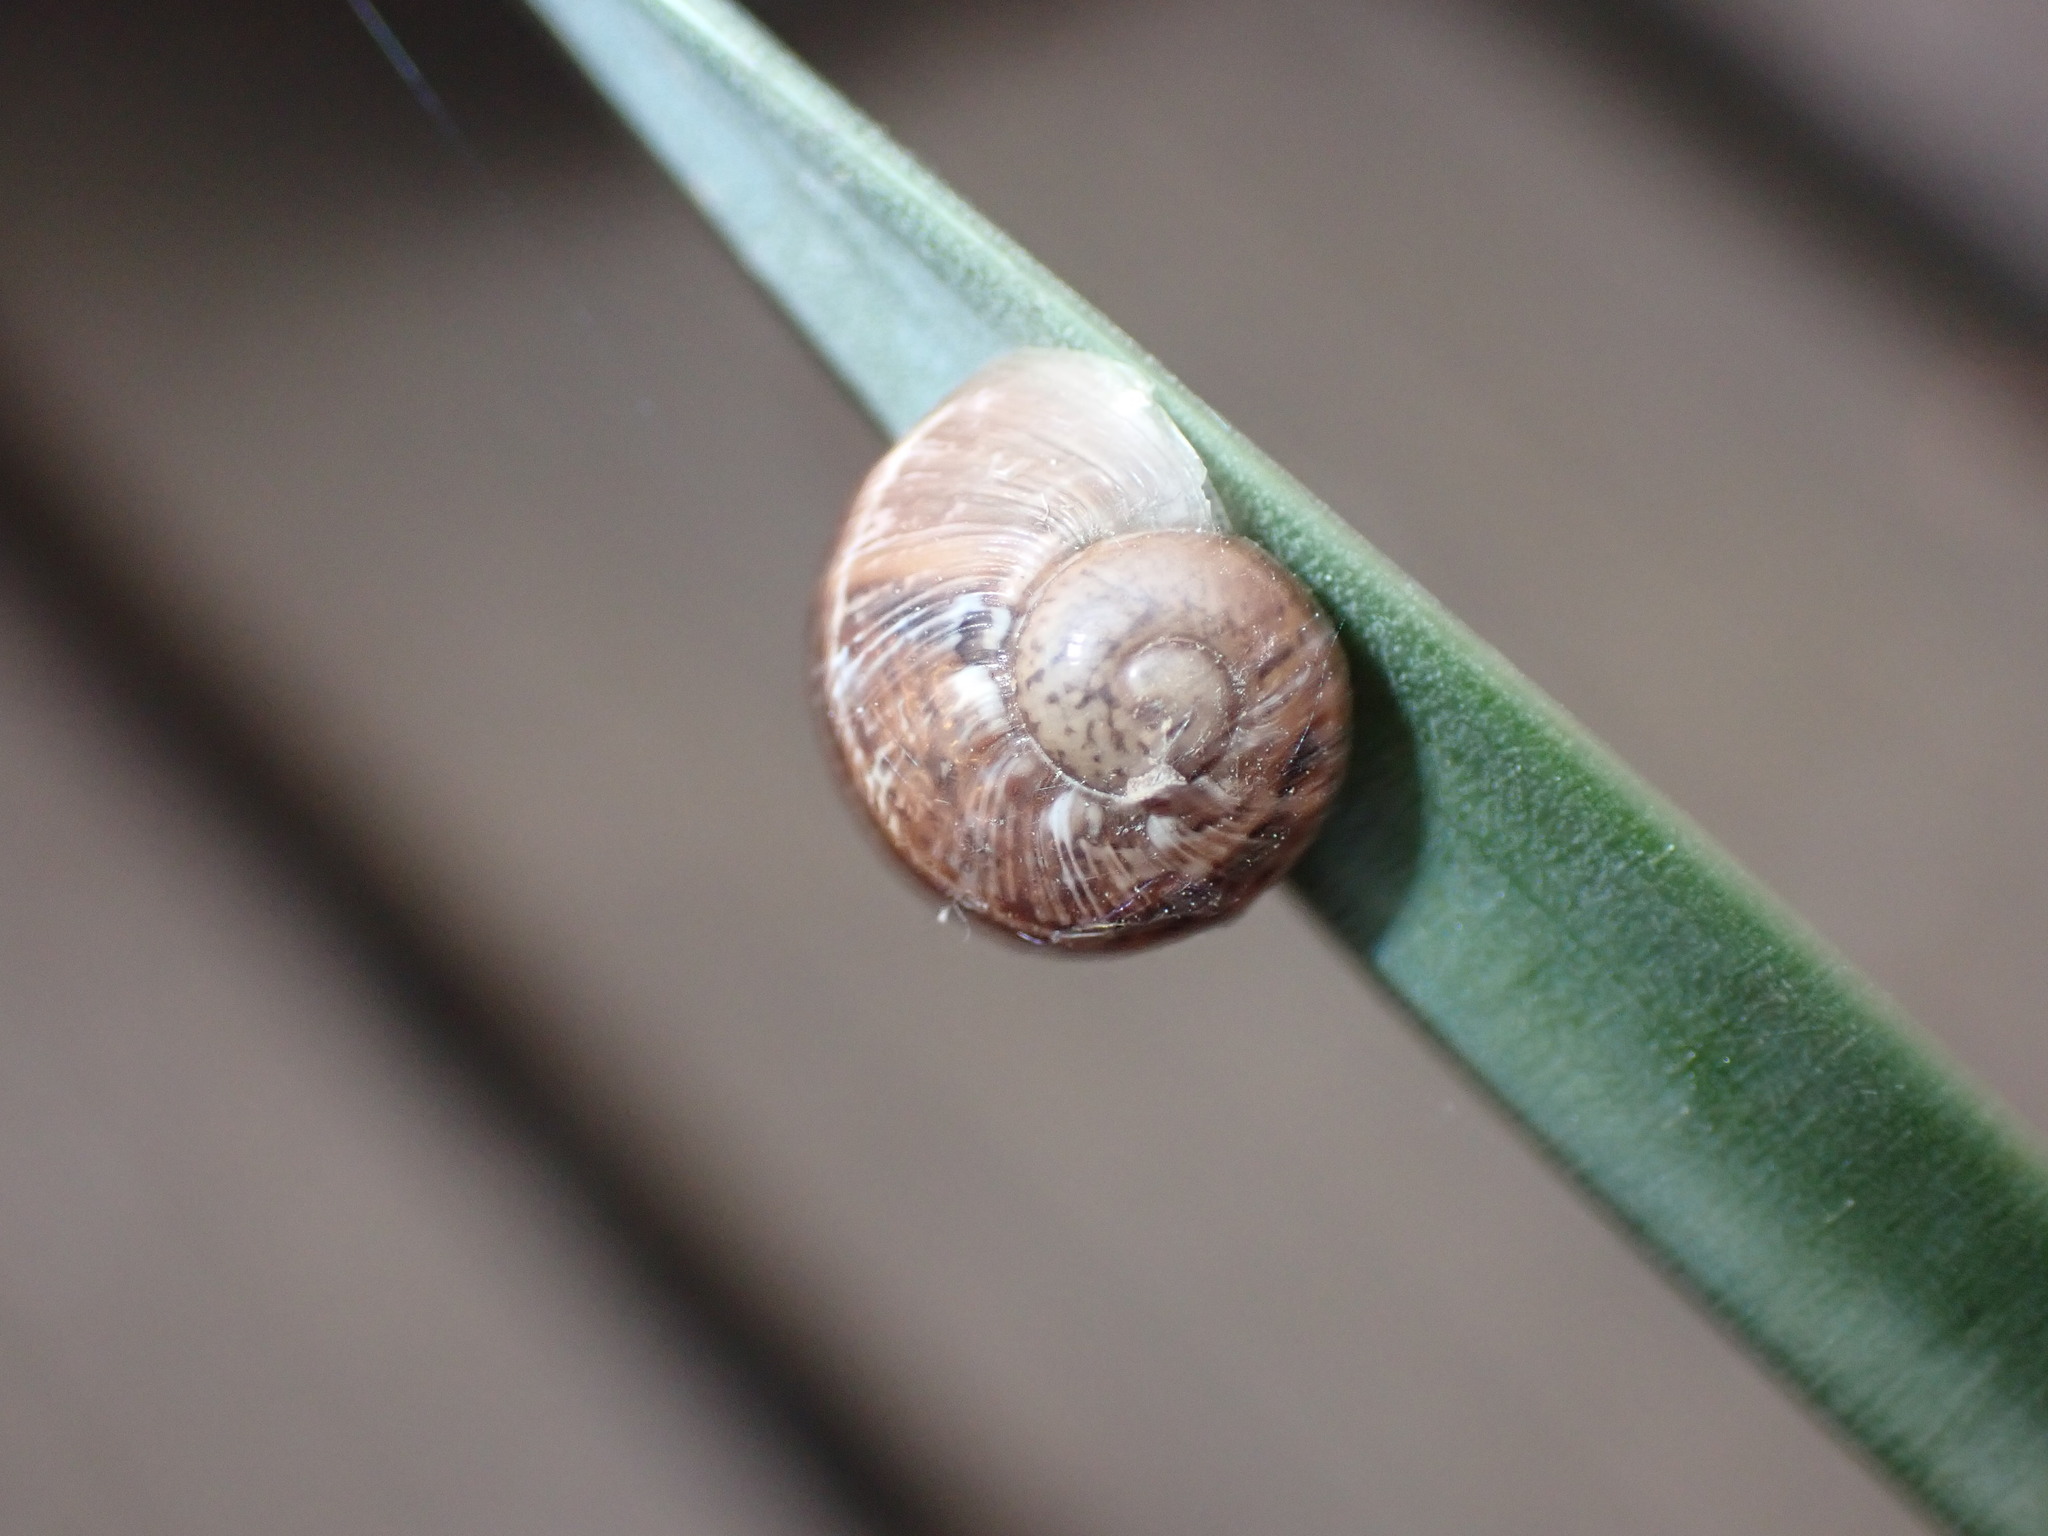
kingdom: Animalia
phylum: Mollusca
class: Gastropoda
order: Stylommatophora
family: Helicidae
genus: Cornu
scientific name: Cornu aspersum
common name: Brown garden snail
